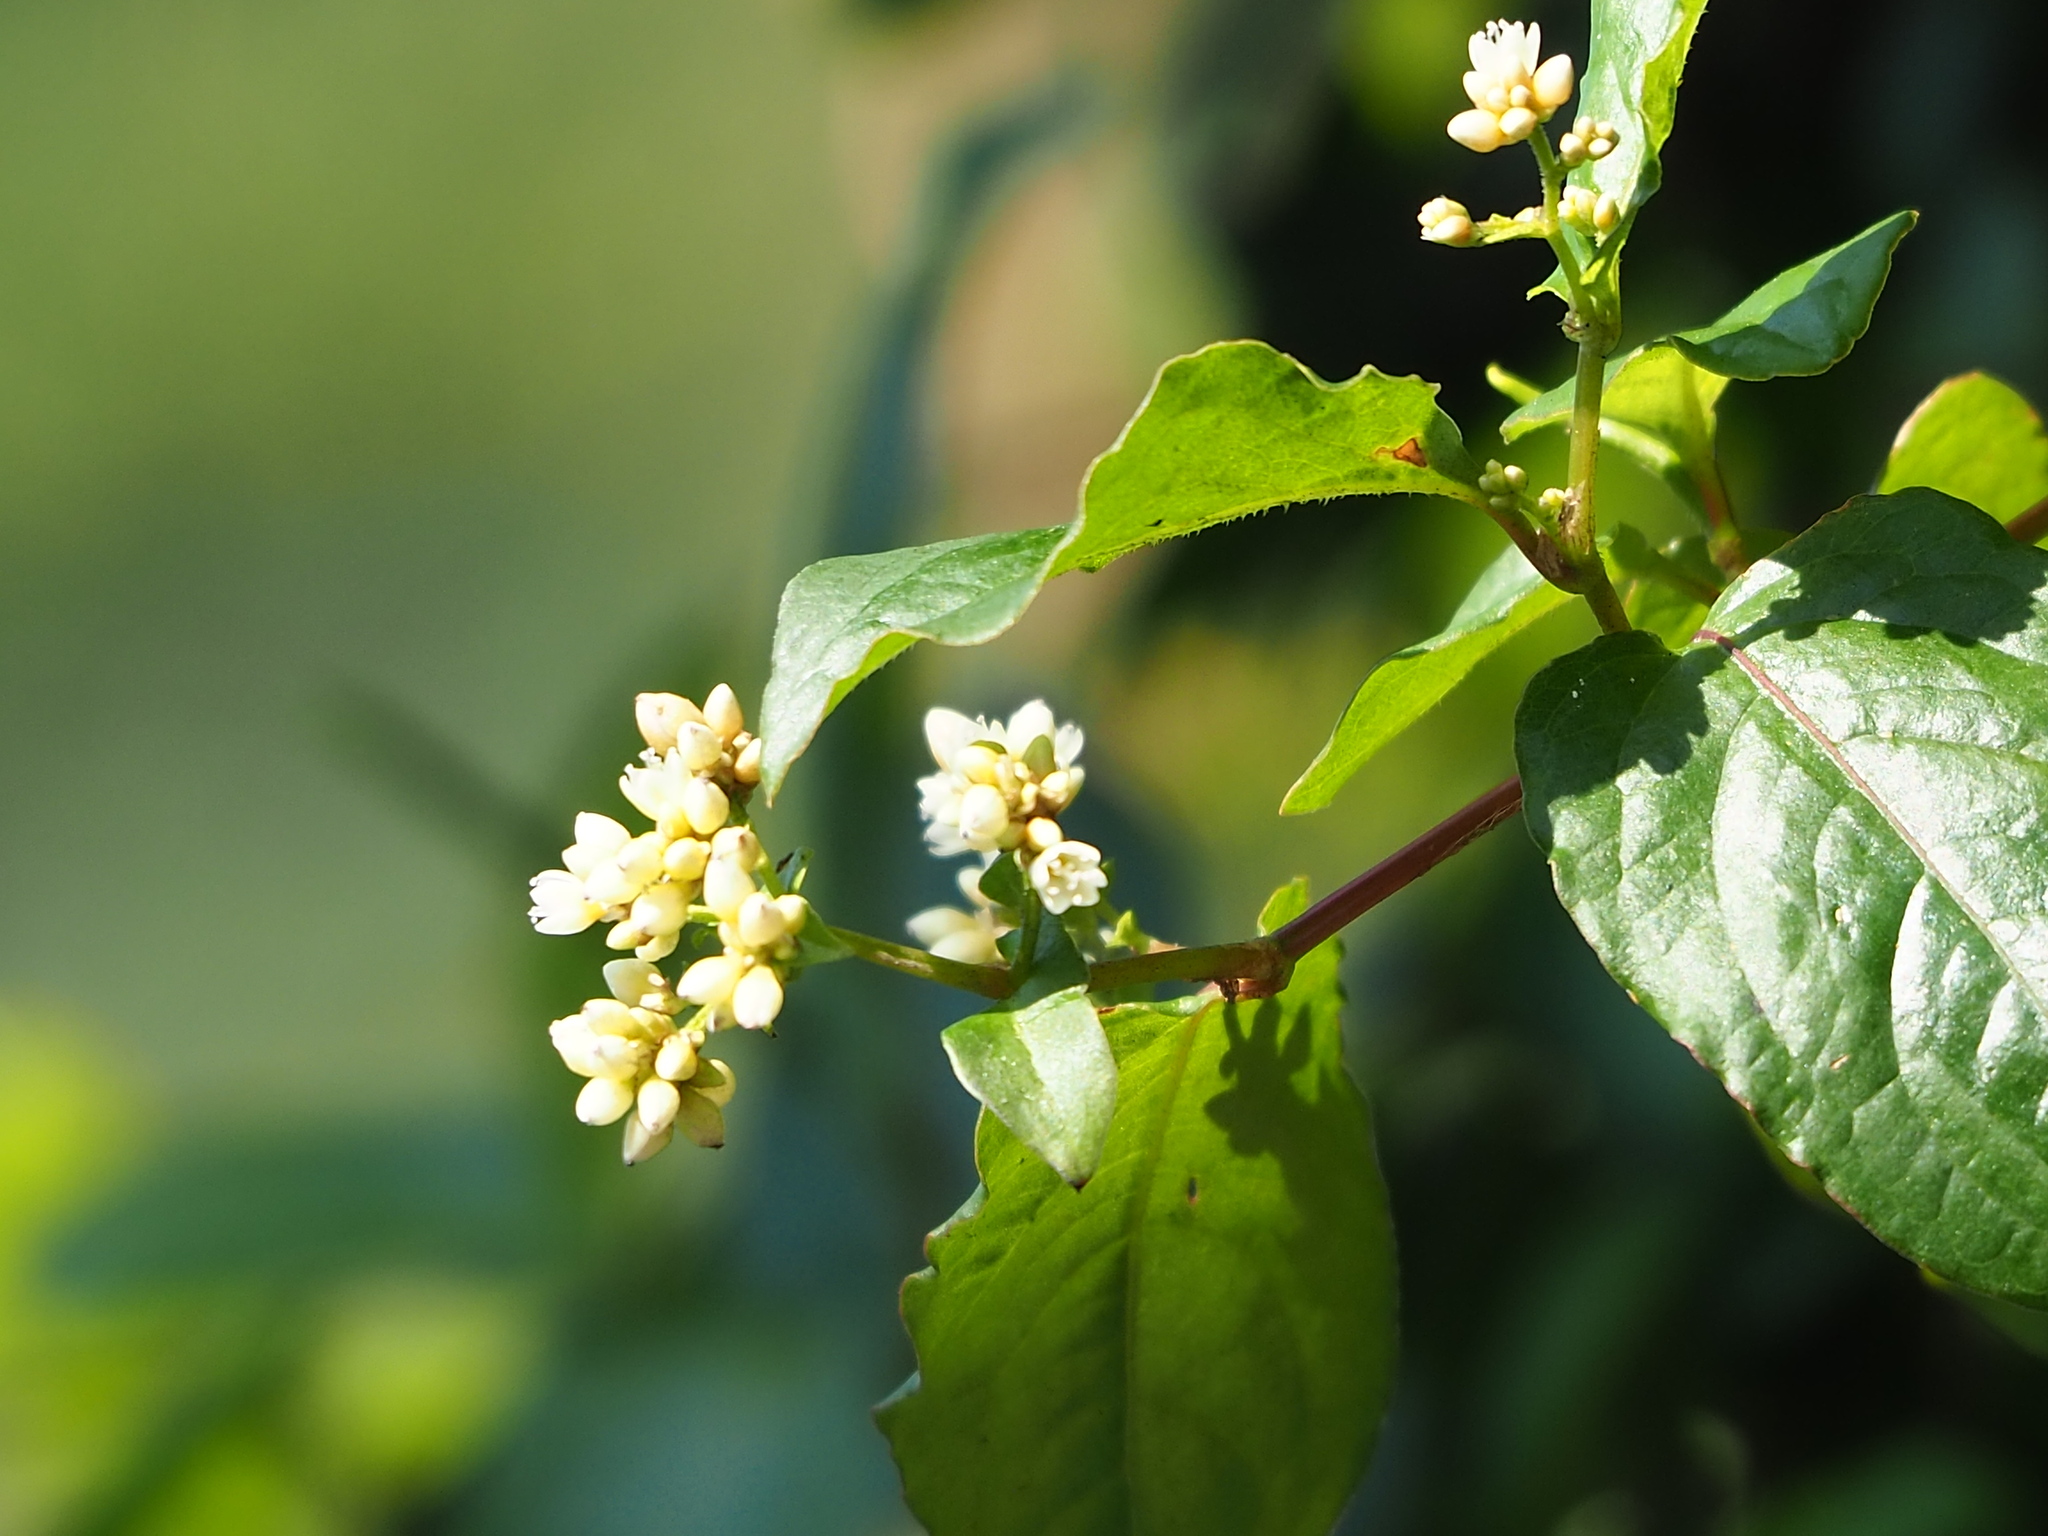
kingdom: Plantae
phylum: Tracheophyta
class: Magnoliopsida
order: Caryophyllales
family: Polygonaceae
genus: Persicaria
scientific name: Persicaria chinensis
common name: Chinese knotweed
